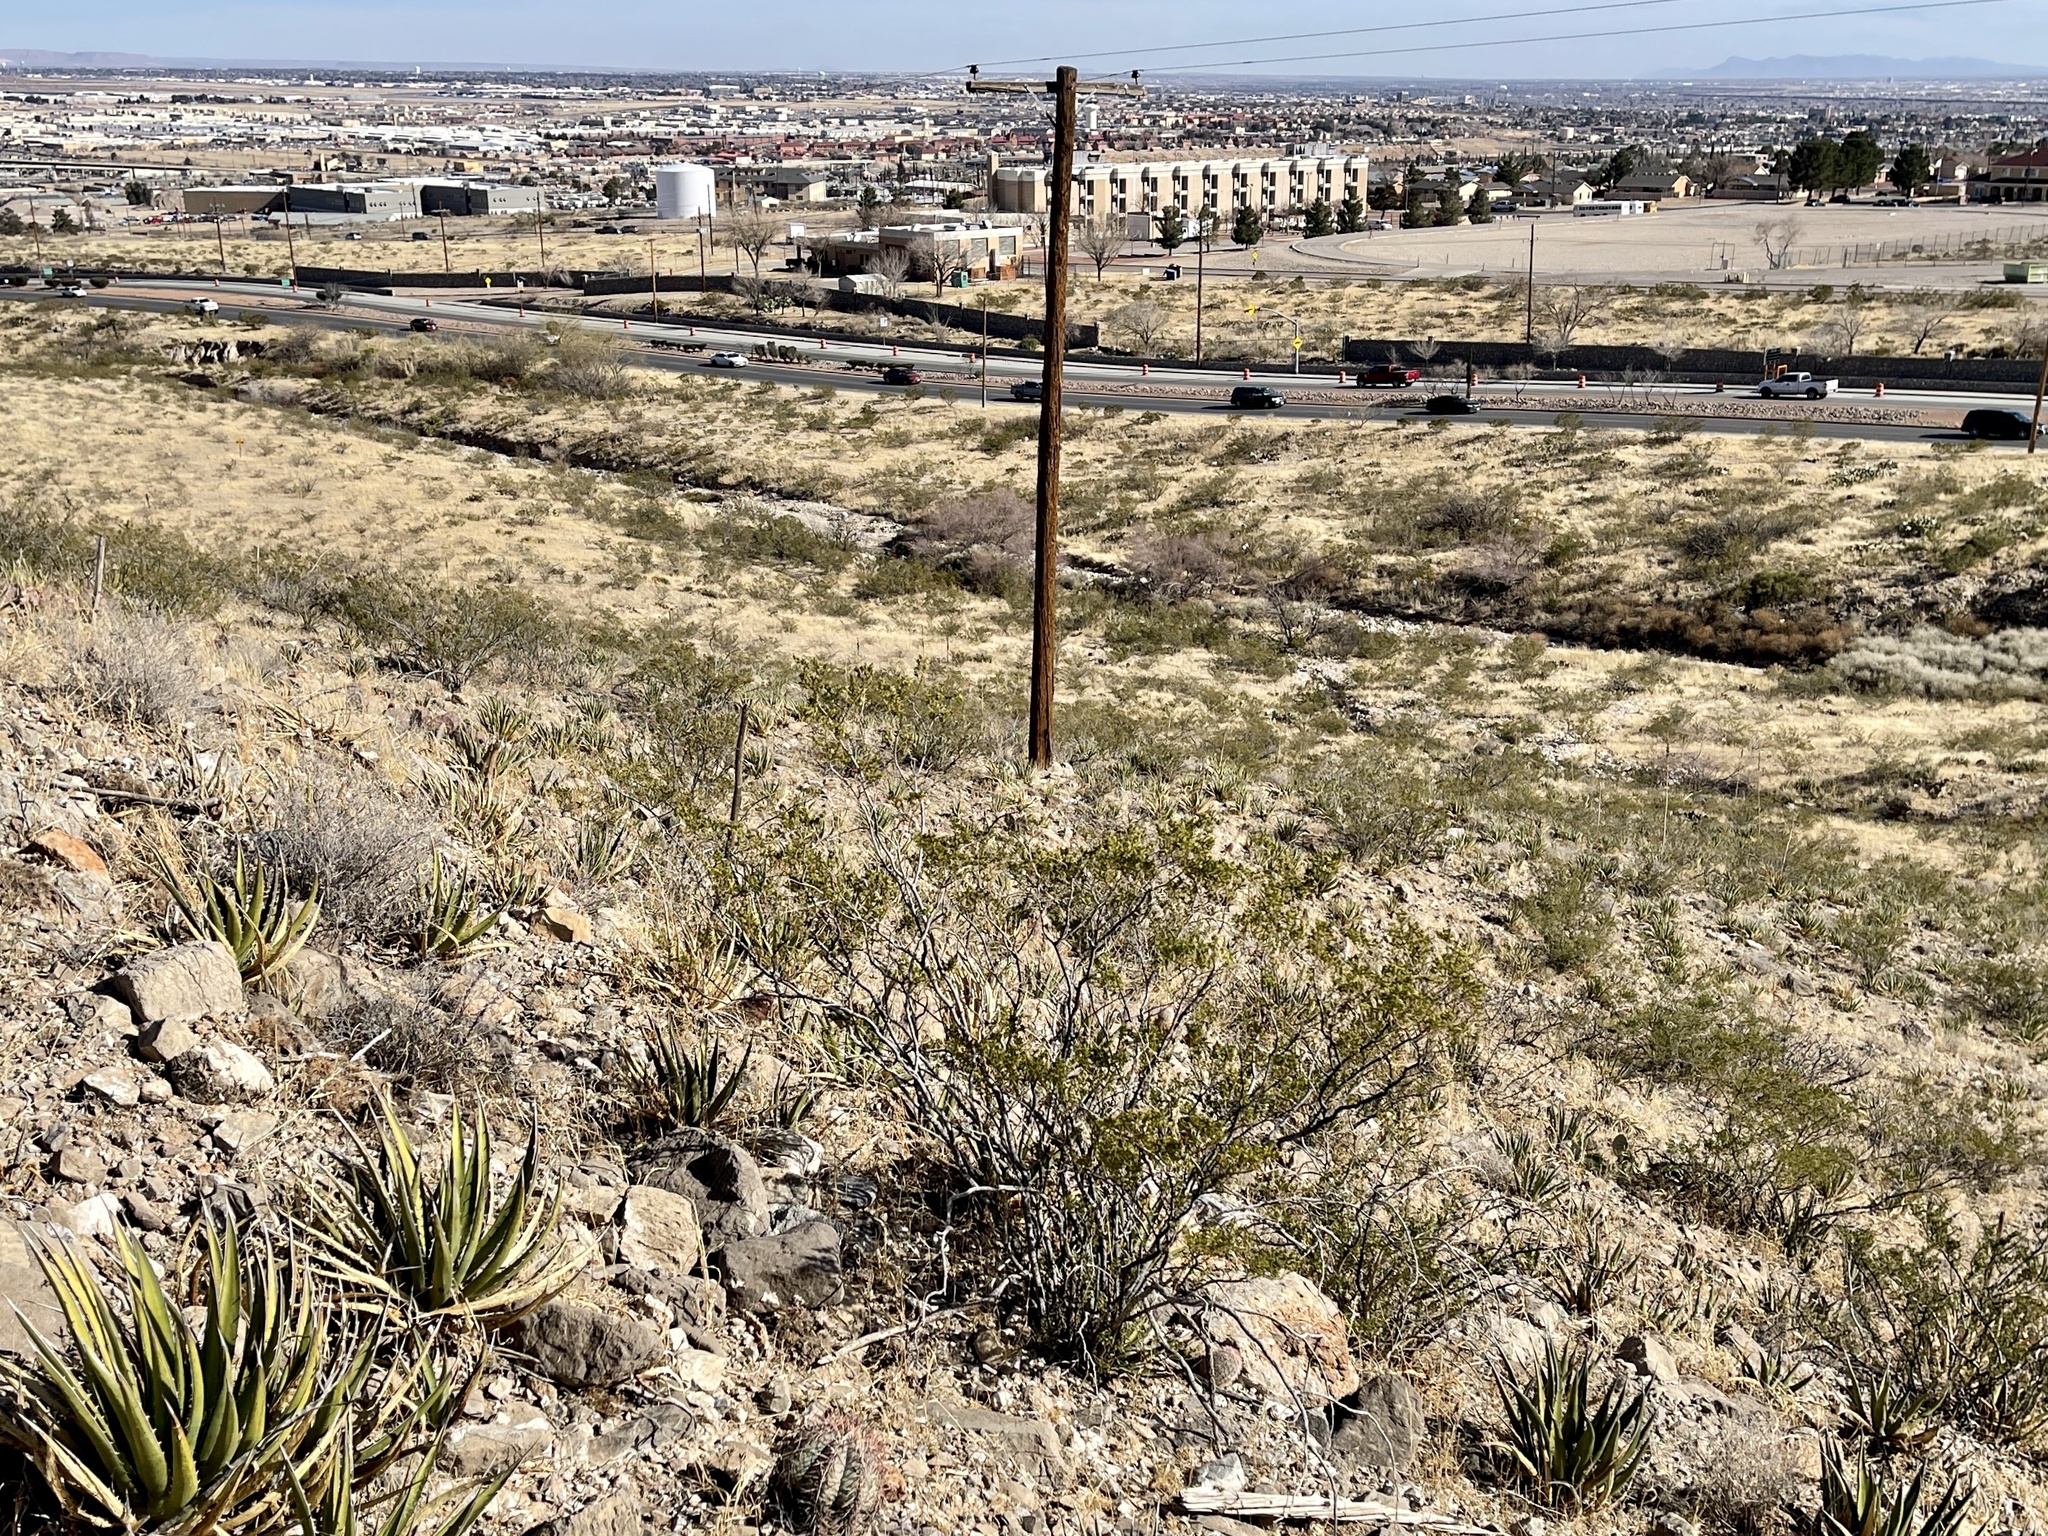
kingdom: Plantae
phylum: Tracheophyta
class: Magnoliopsida
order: Zygophyllales
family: Zygophyllaceae
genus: Larrea
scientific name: Larrea tridentata
